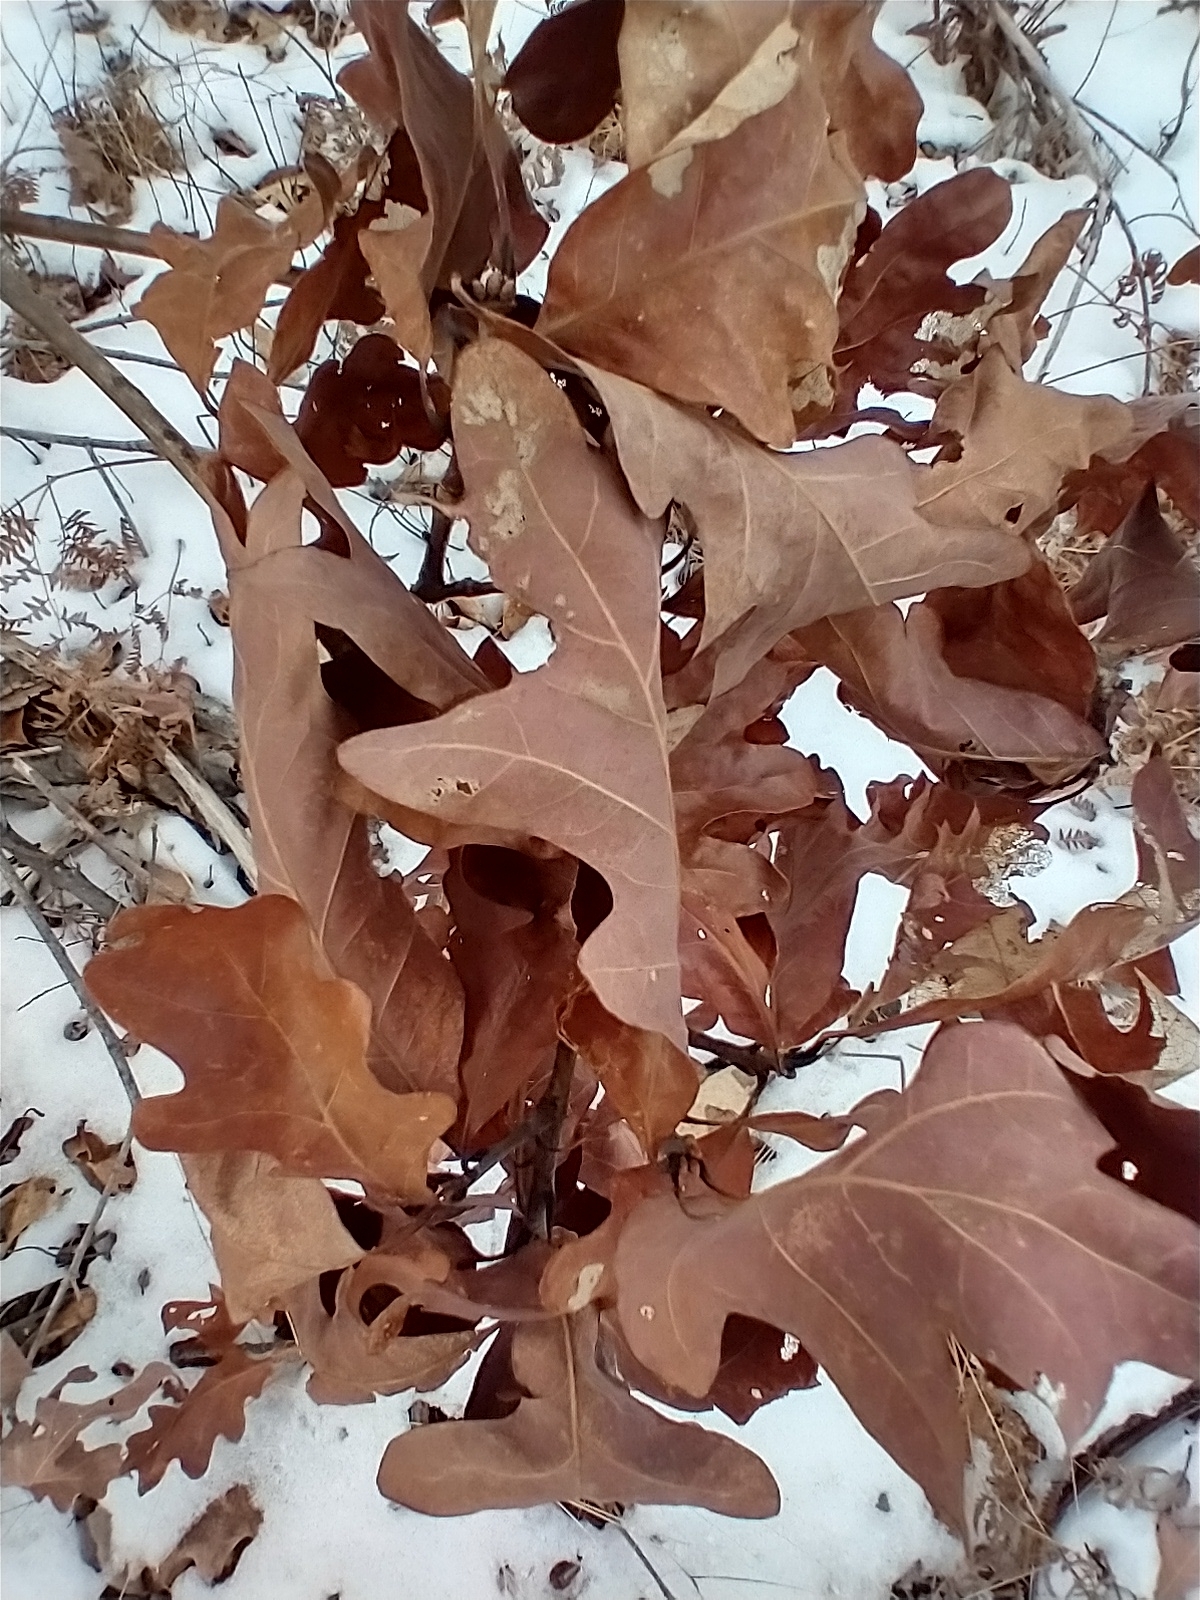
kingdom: Plantae
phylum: Tracheophyta
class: Magnoliopsida
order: Fagales
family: Fagaceae
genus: Quercus
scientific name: Quercus alba
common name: White oak
